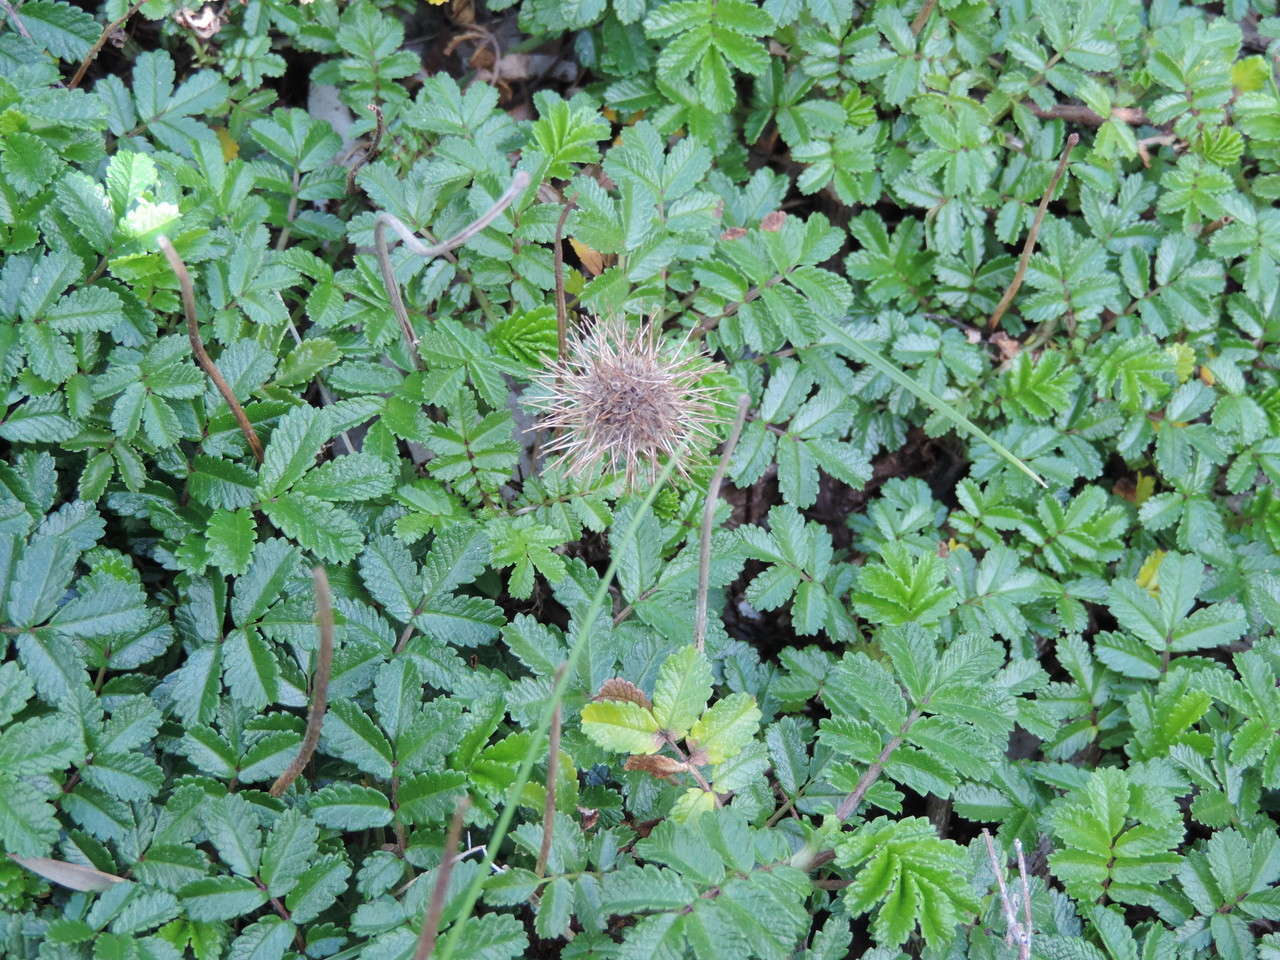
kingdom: Plantae
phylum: Tracheophyta
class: Magnoliopsida
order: Rosales
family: Rosaceae
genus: Acaena
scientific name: Acaena novae-zelandiae
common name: Pirri-pirri-bur
